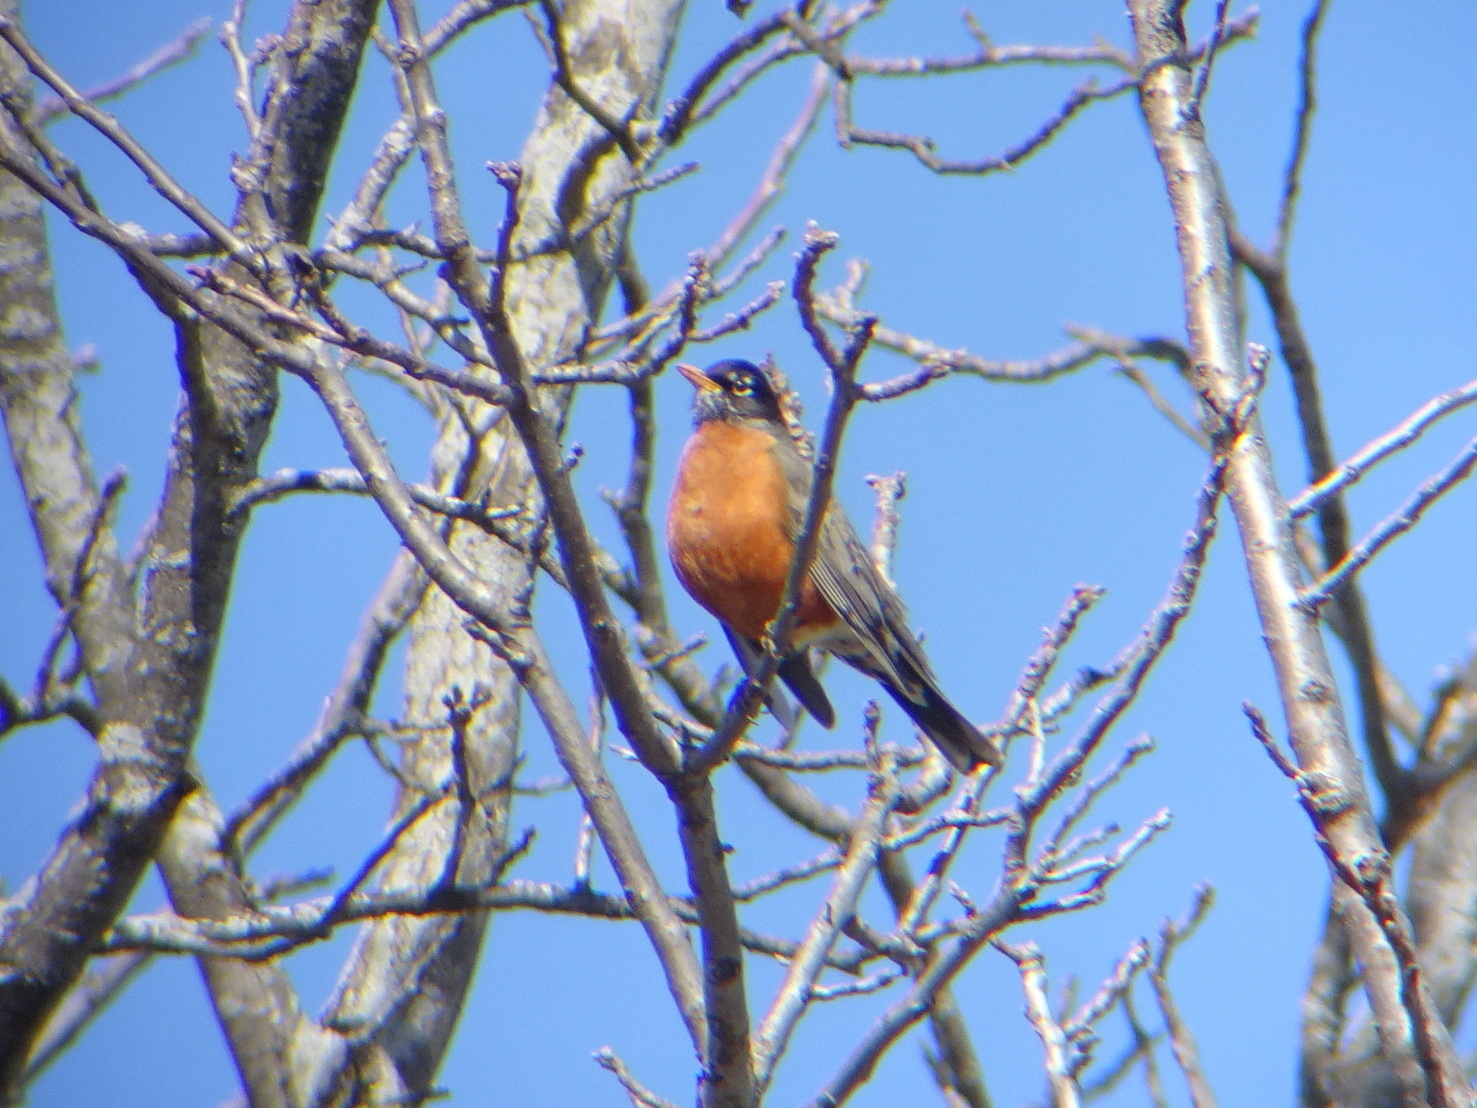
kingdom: Animalia
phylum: Chordata
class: Aves
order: Passeriformes
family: Turdidae
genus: Turdus
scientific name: Turdus migratorius
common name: American robin
